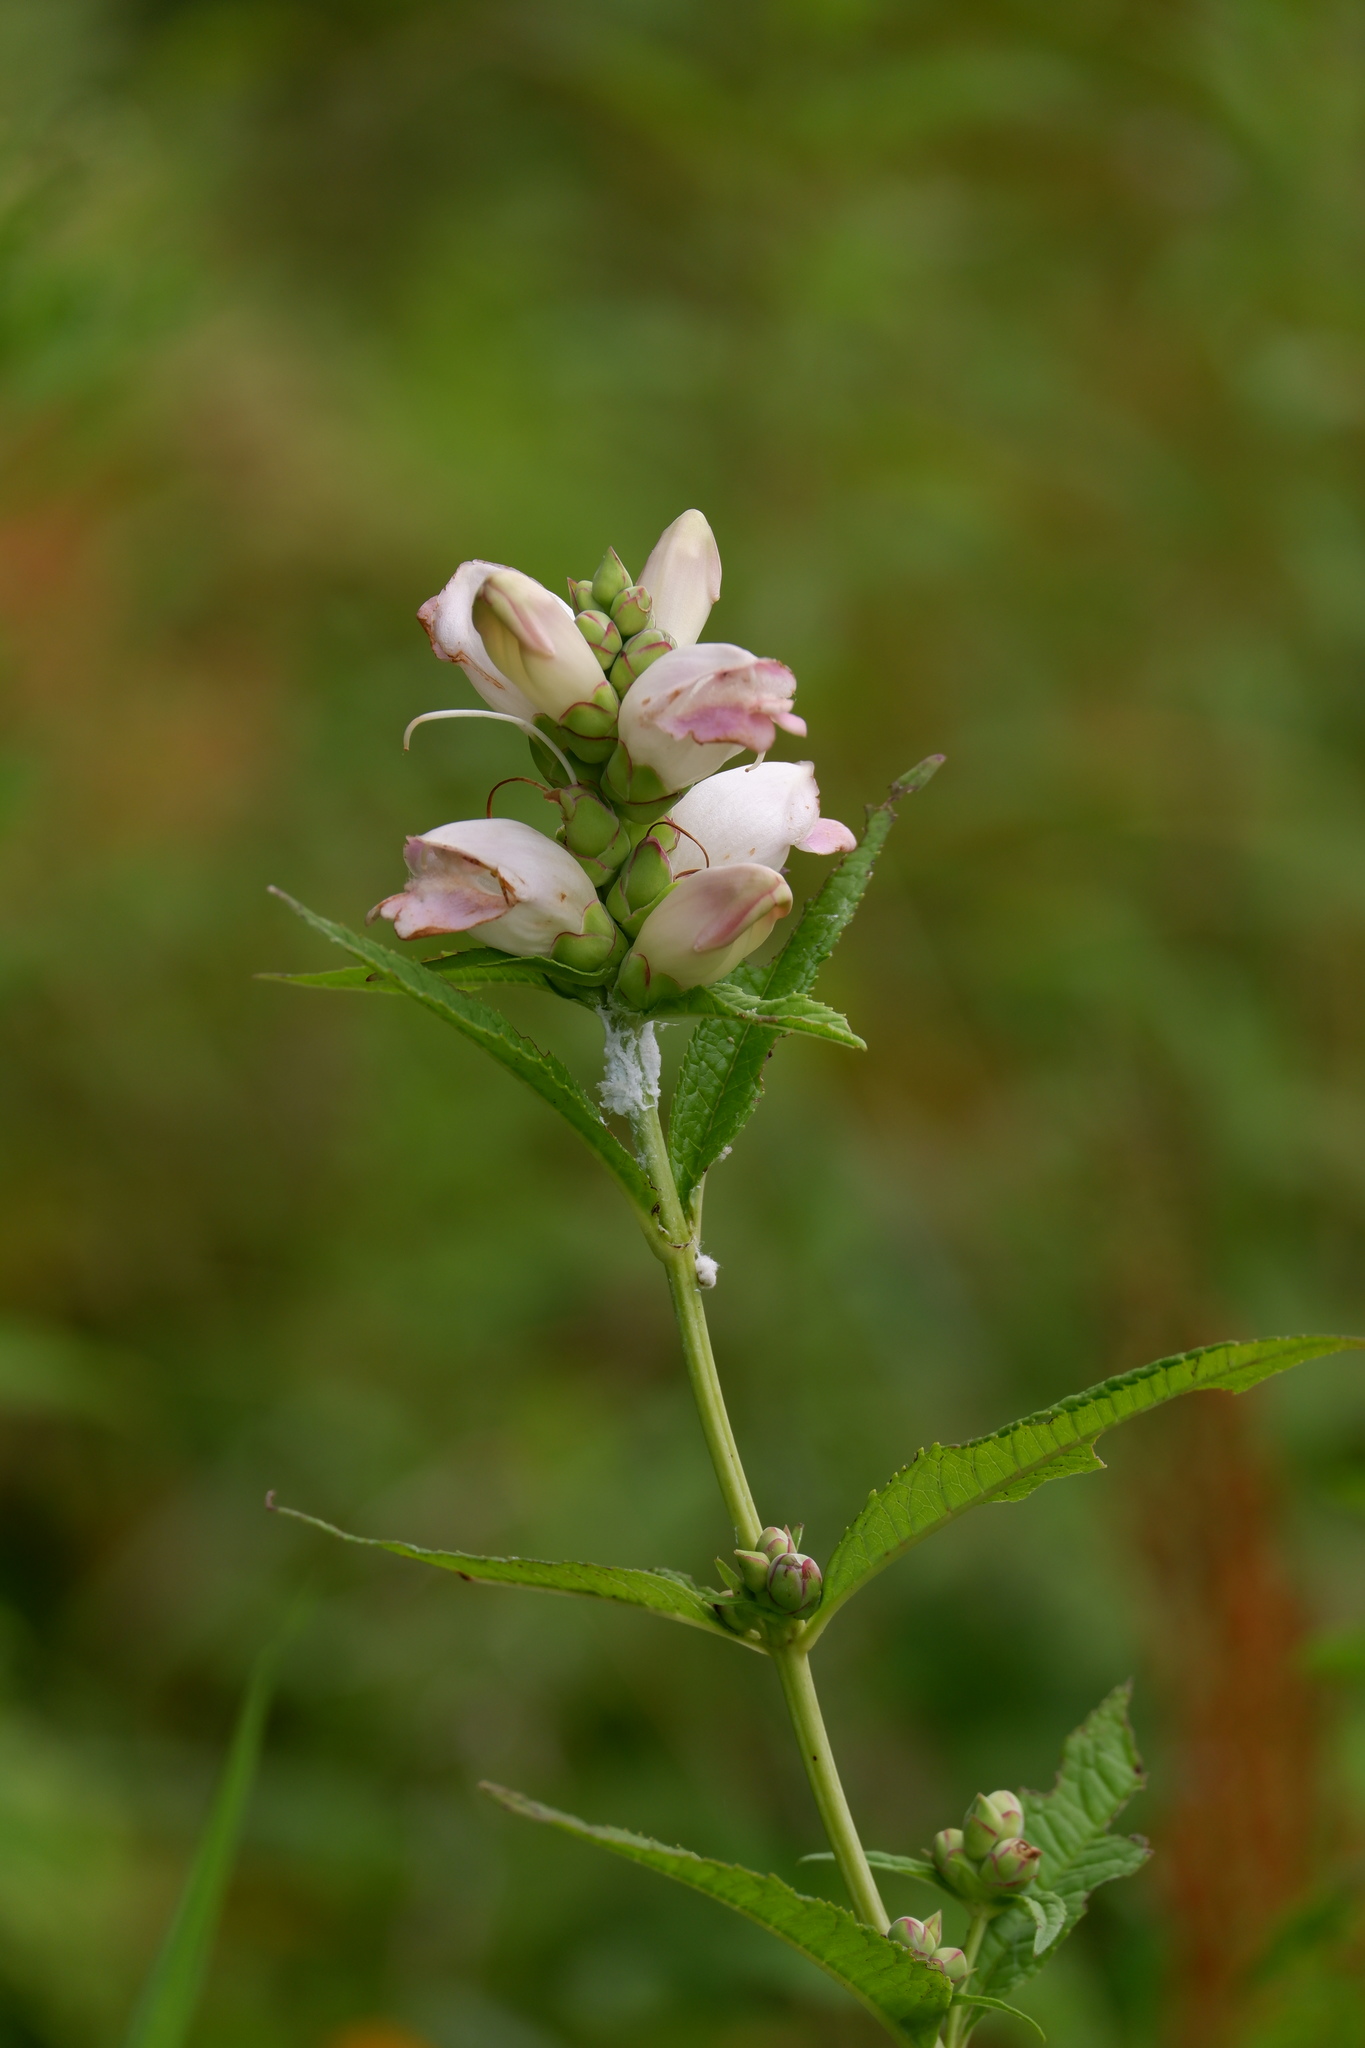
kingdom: Plantae
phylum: Tracheophyta
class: Magnoliopsida
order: Lamiales
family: Plantaginaceae
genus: Chelone
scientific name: Chelone glabra
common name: Snakehead
